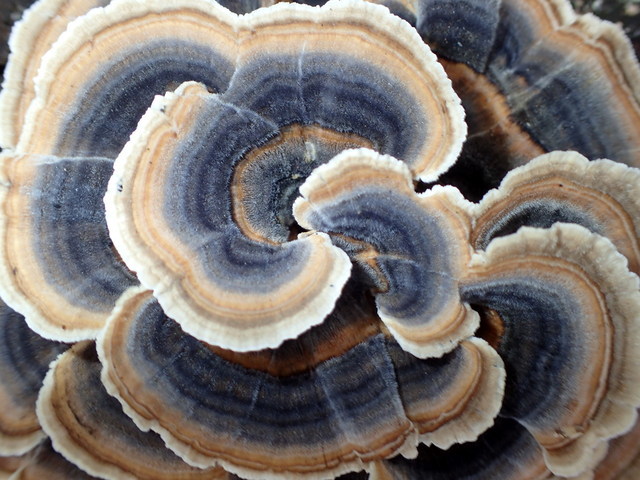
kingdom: Fungi
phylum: Basidiomycota
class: Agaricomycetes
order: Polyporales
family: Polyporaceae
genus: Trametes
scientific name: Trametes versicolor
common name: Turkeytail
